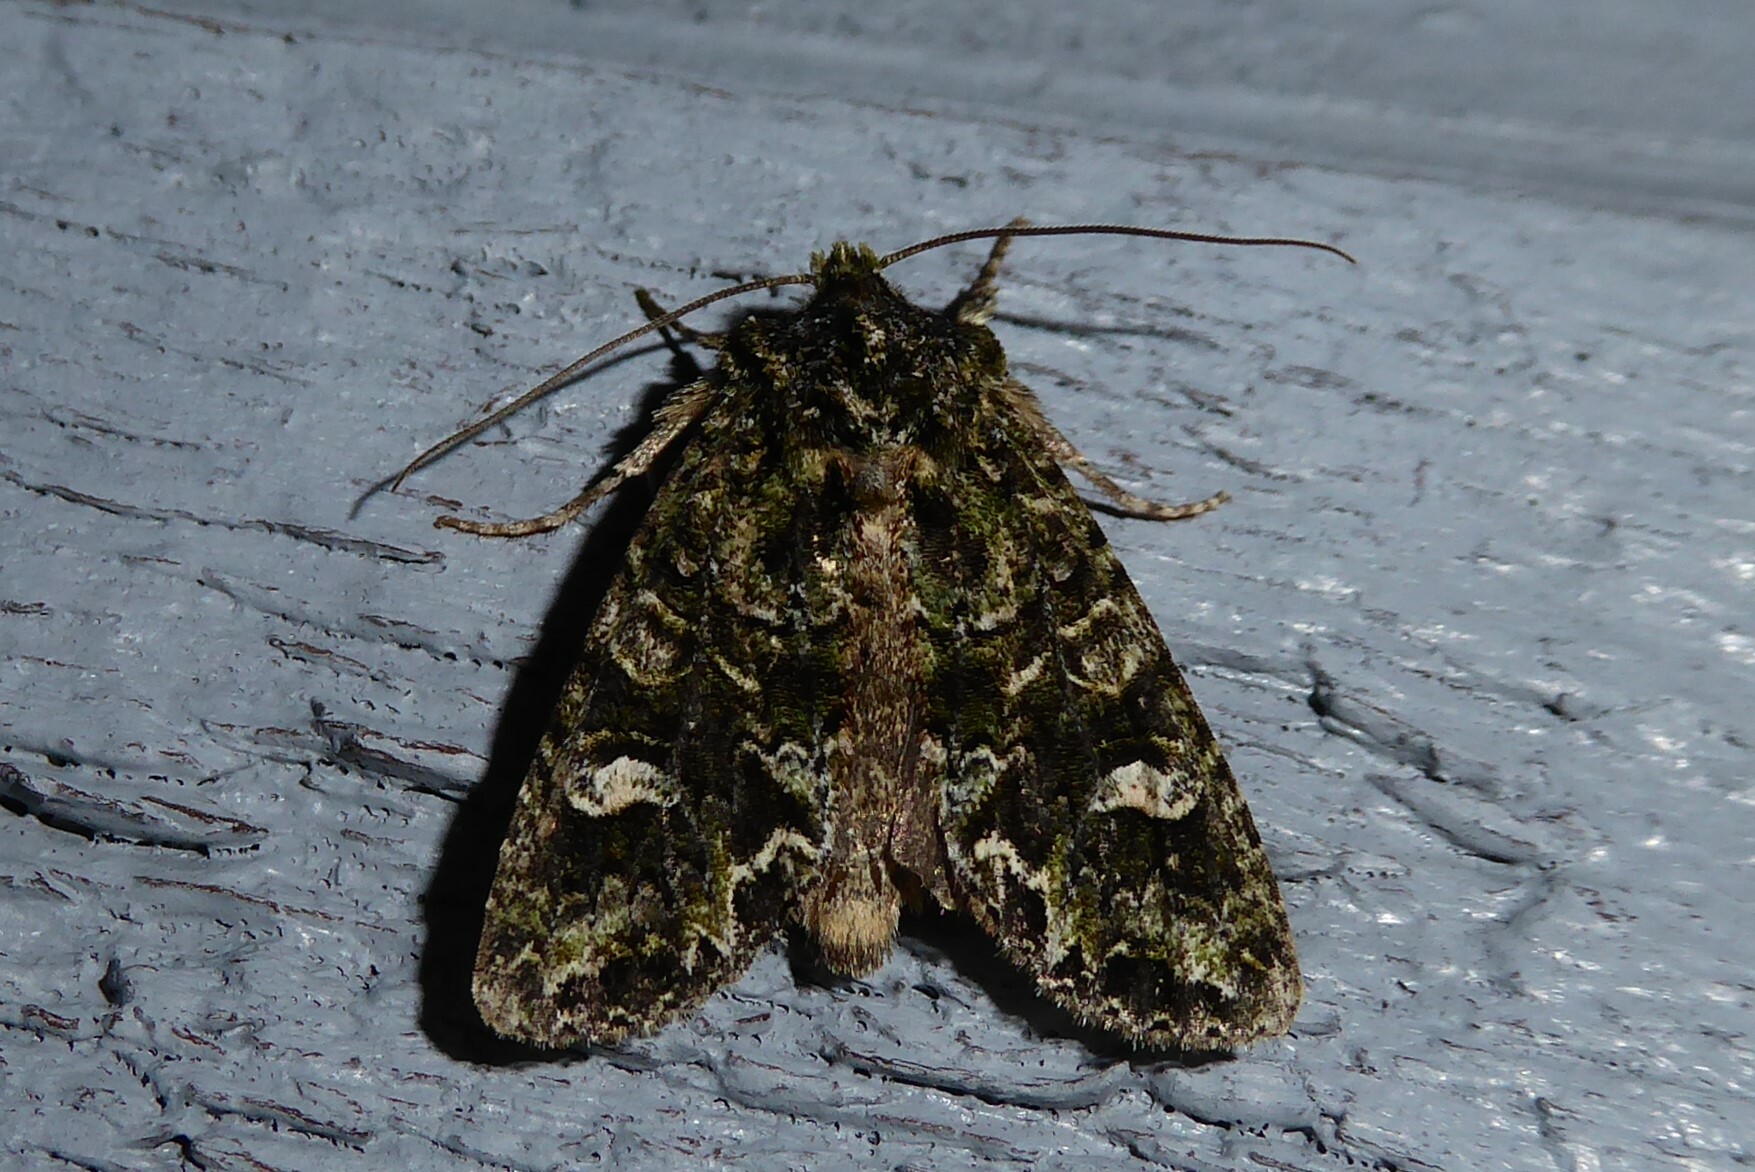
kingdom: Animalia
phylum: Arthropoda
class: Insecta
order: Lepidoptera
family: Noctuidae
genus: Ichneutica
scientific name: Ichneutica
